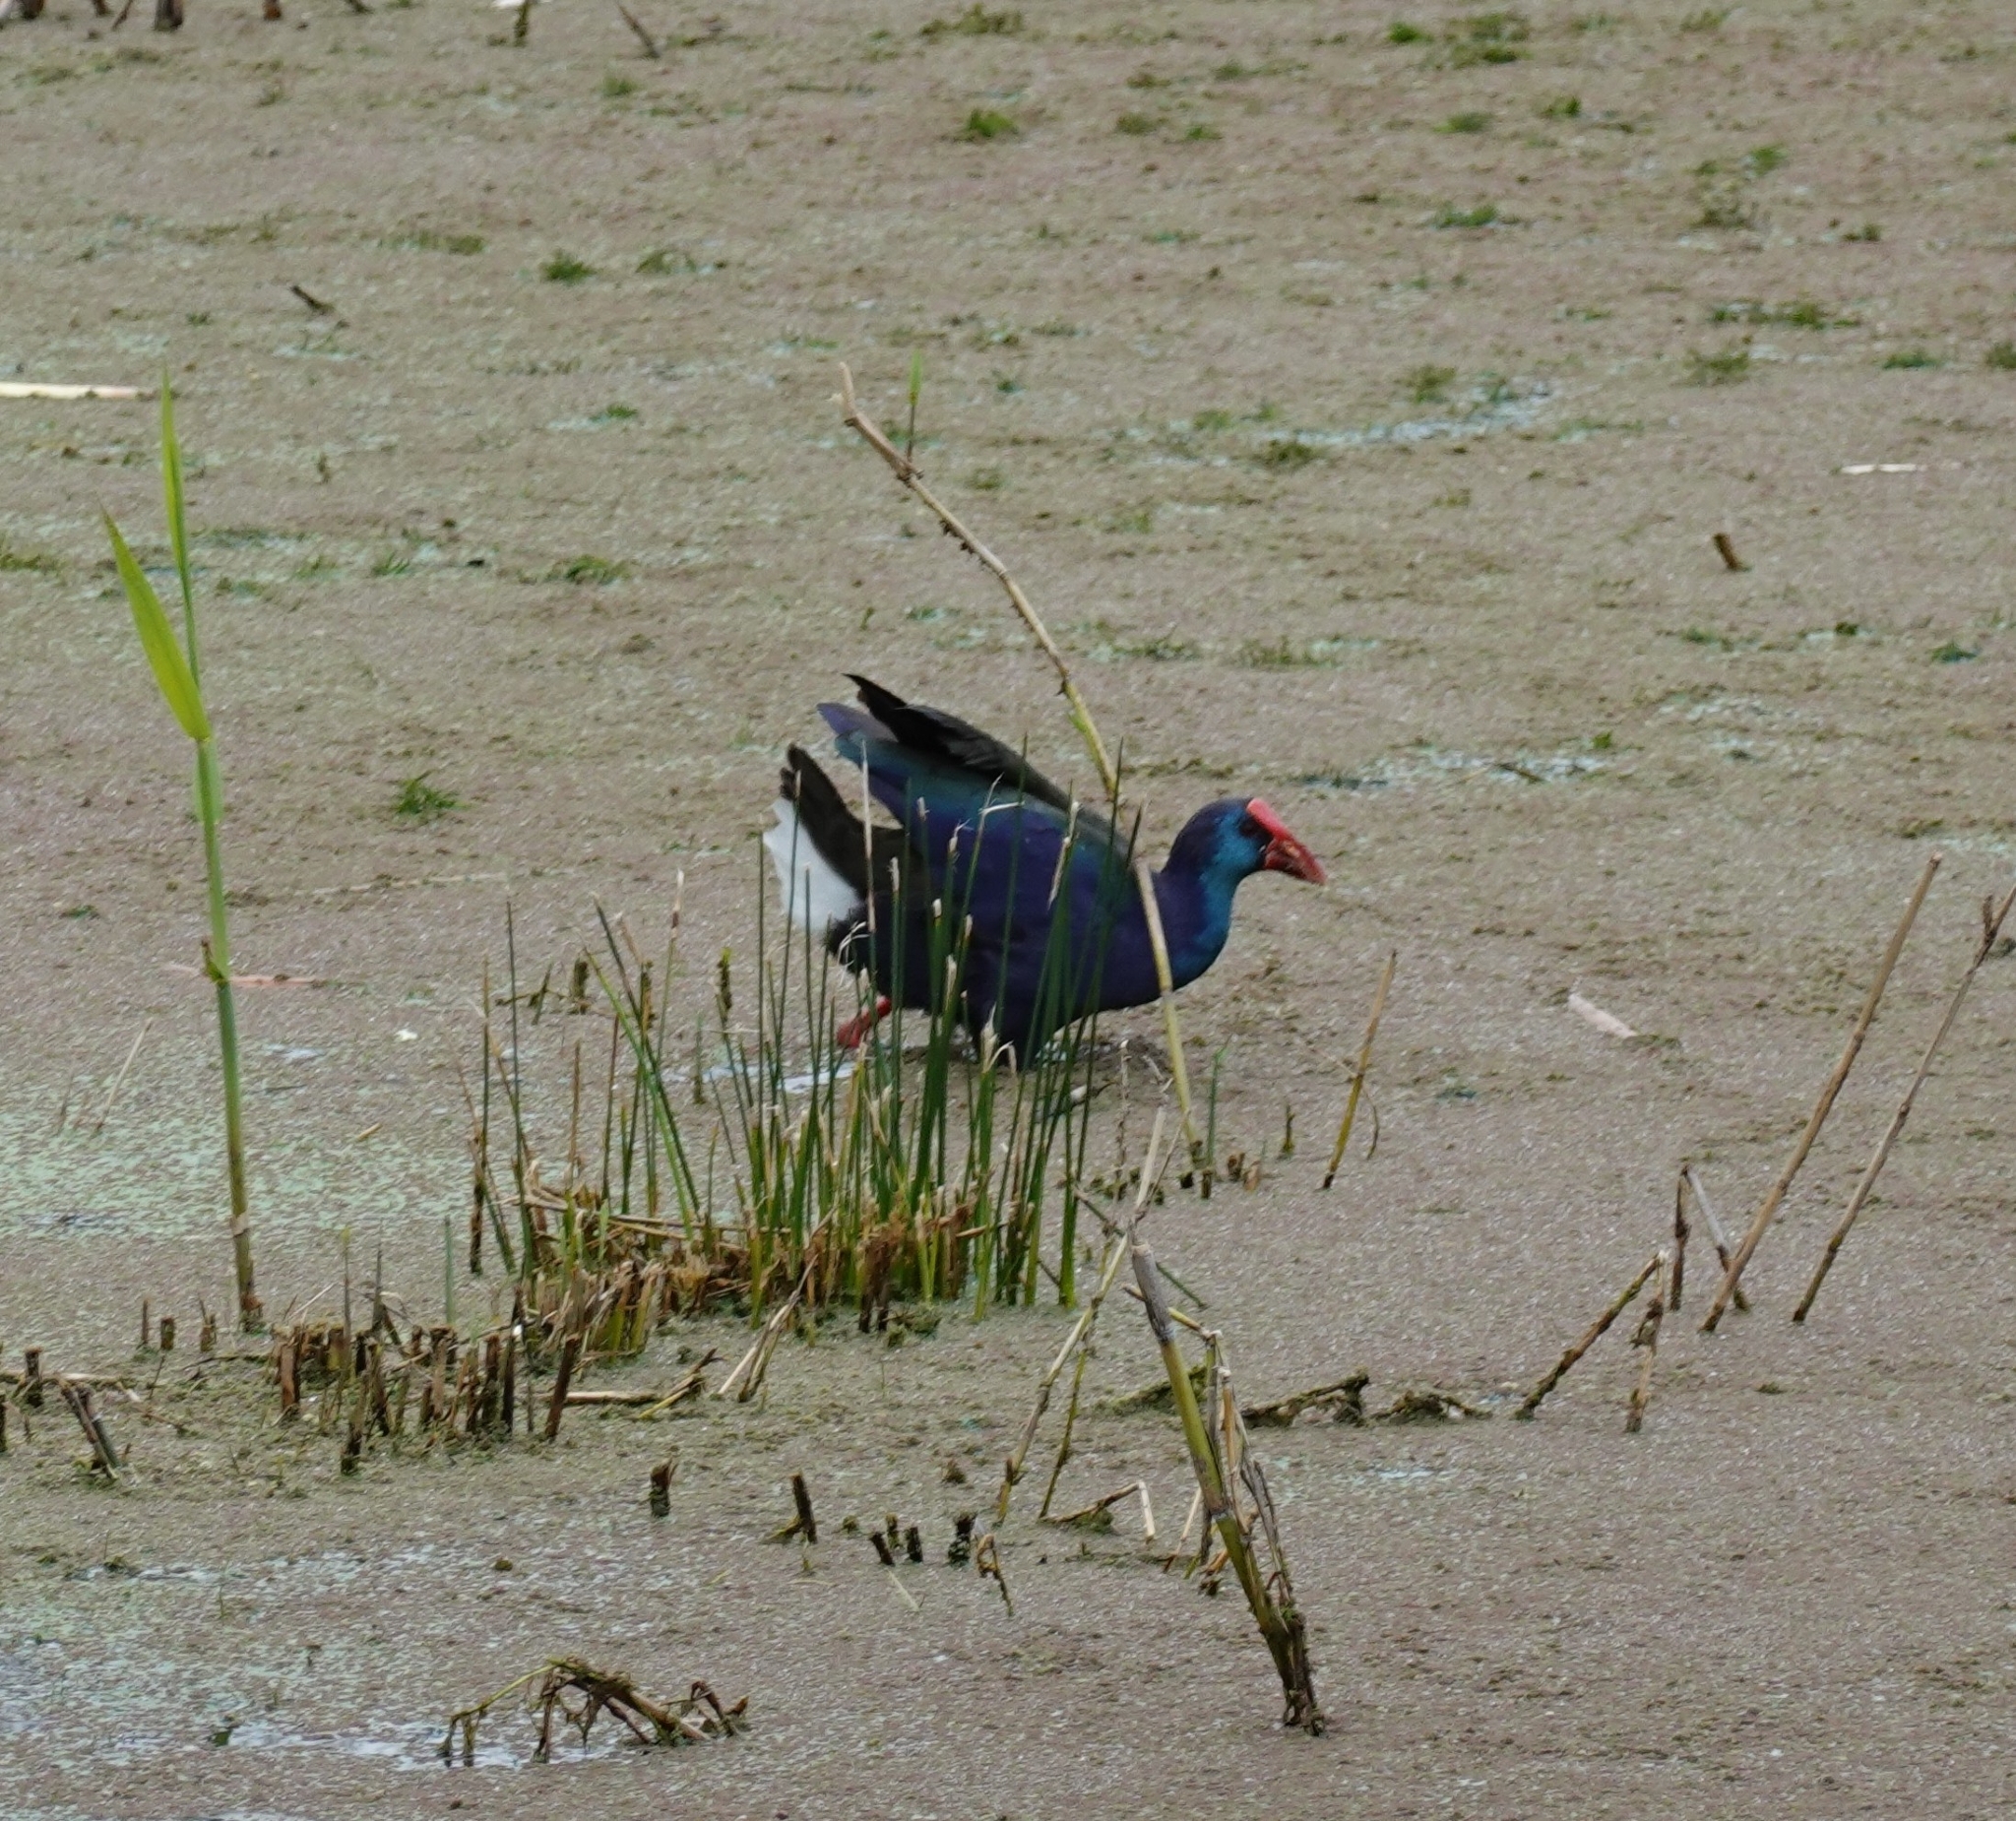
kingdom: Animalia
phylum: Chordata
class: Aves
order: Gruiformes
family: Rallidae
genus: Porphyrio
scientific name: Porphyrio porphyrio
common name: Purple swamphen
